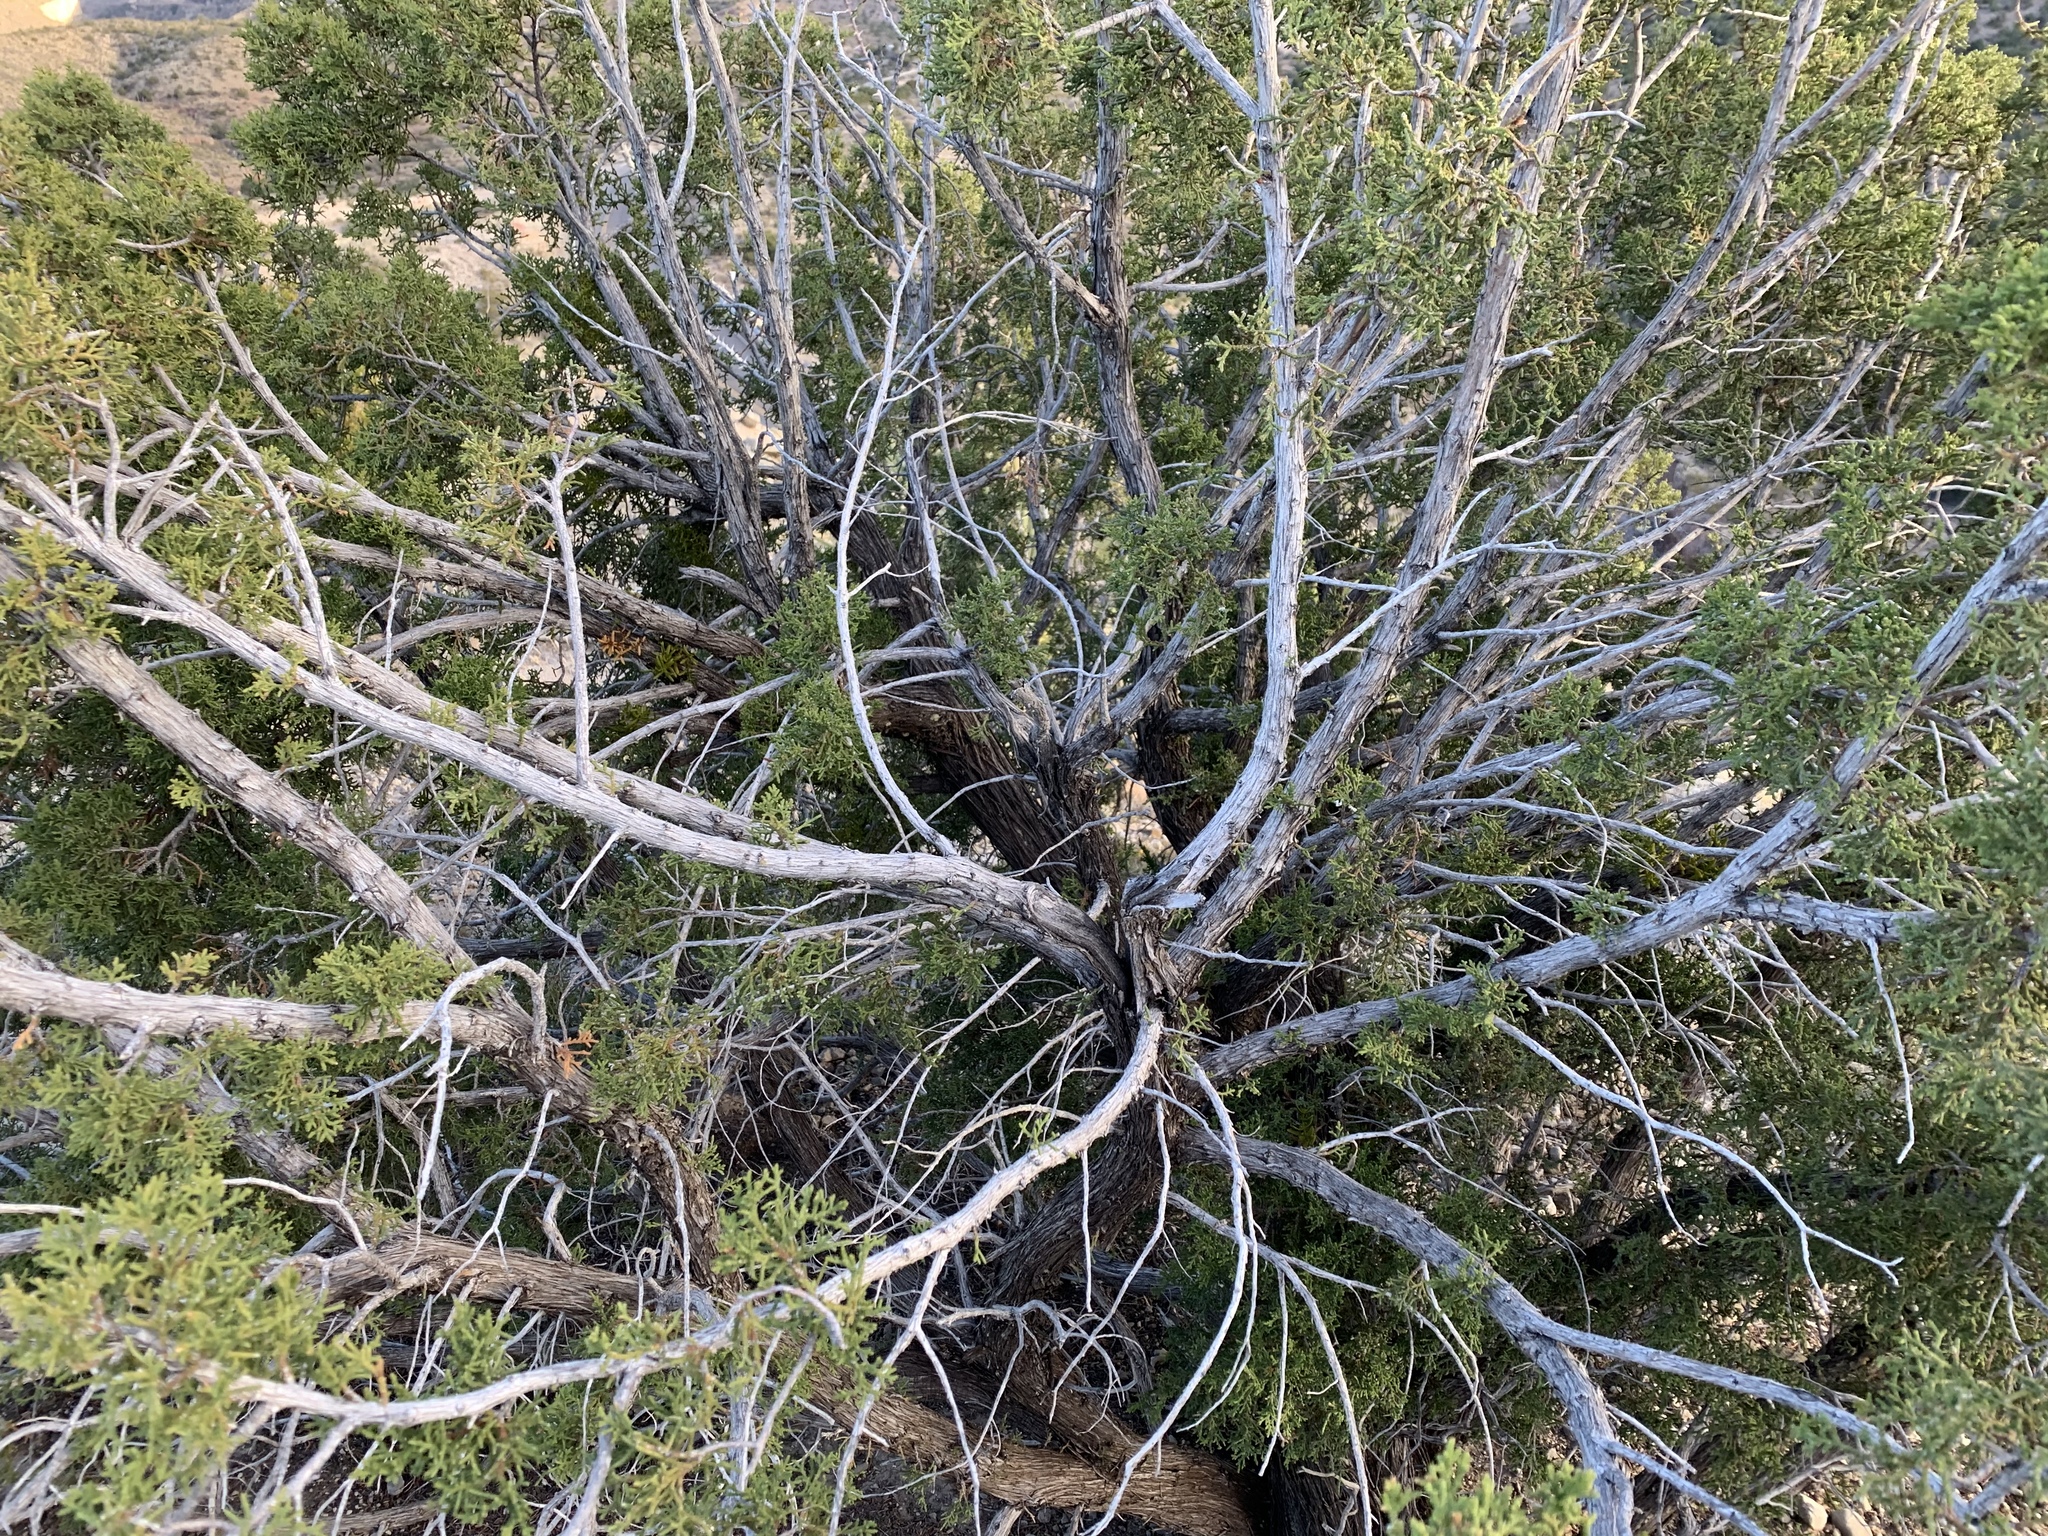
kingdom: Plantae
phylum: Tracheophyta
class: Pinopsida
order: Pinales
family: Cupressaceae
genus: Juniperus
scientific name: Juniperus monosperma
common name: One-seed juniper
